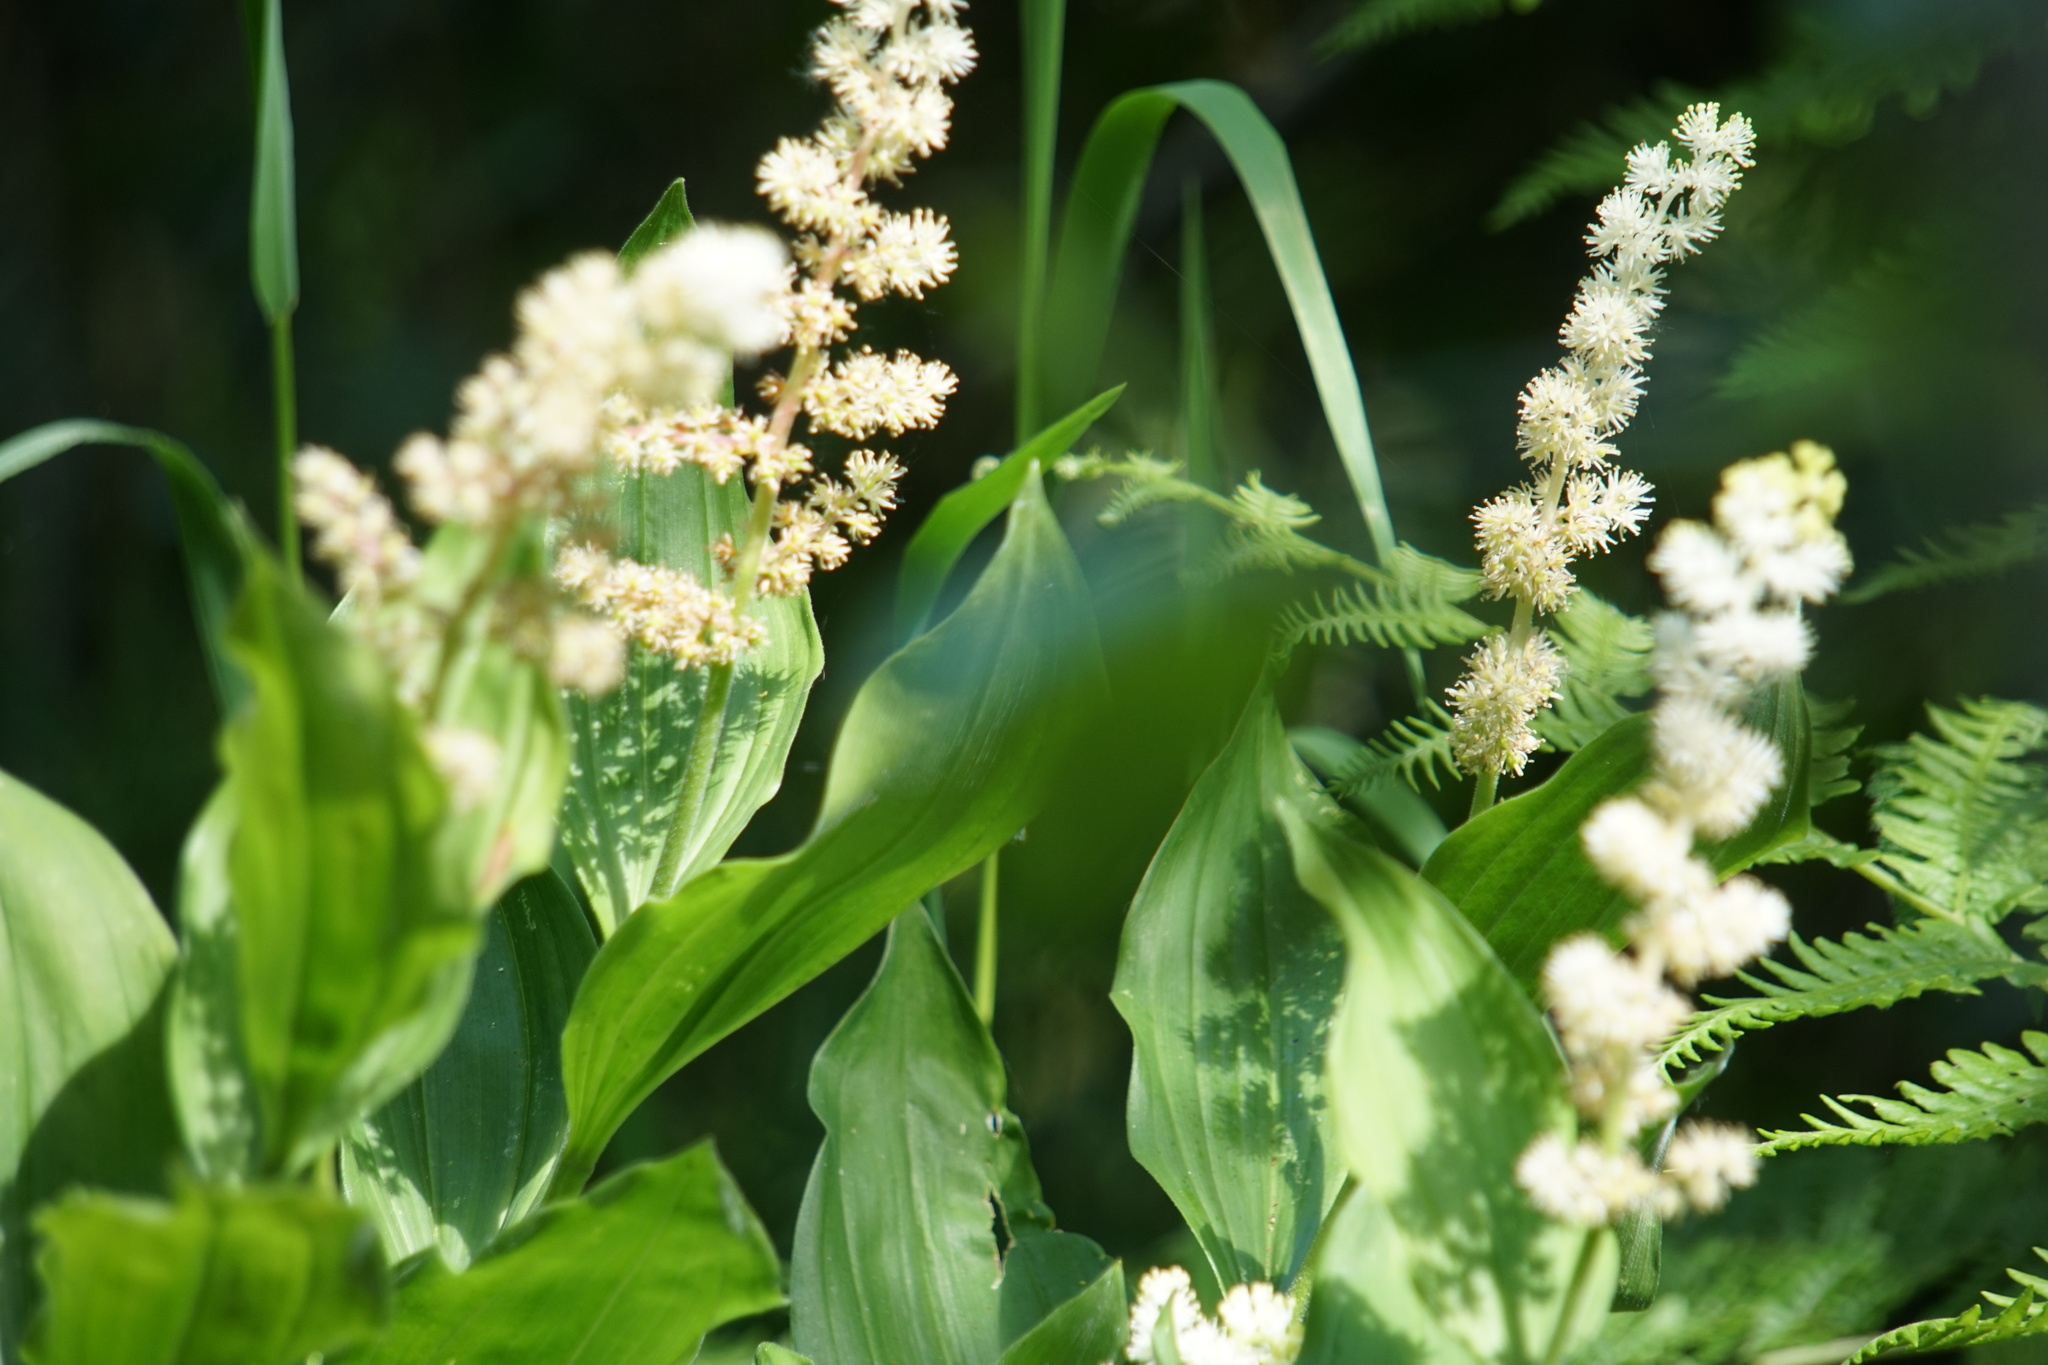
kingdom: Plantae
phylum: Tracheophyta
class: Liliopsida
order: Asparagales
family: Asparagaceae
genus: Maianthemum
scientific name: Maianthemum racemosum
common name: False spikenard
